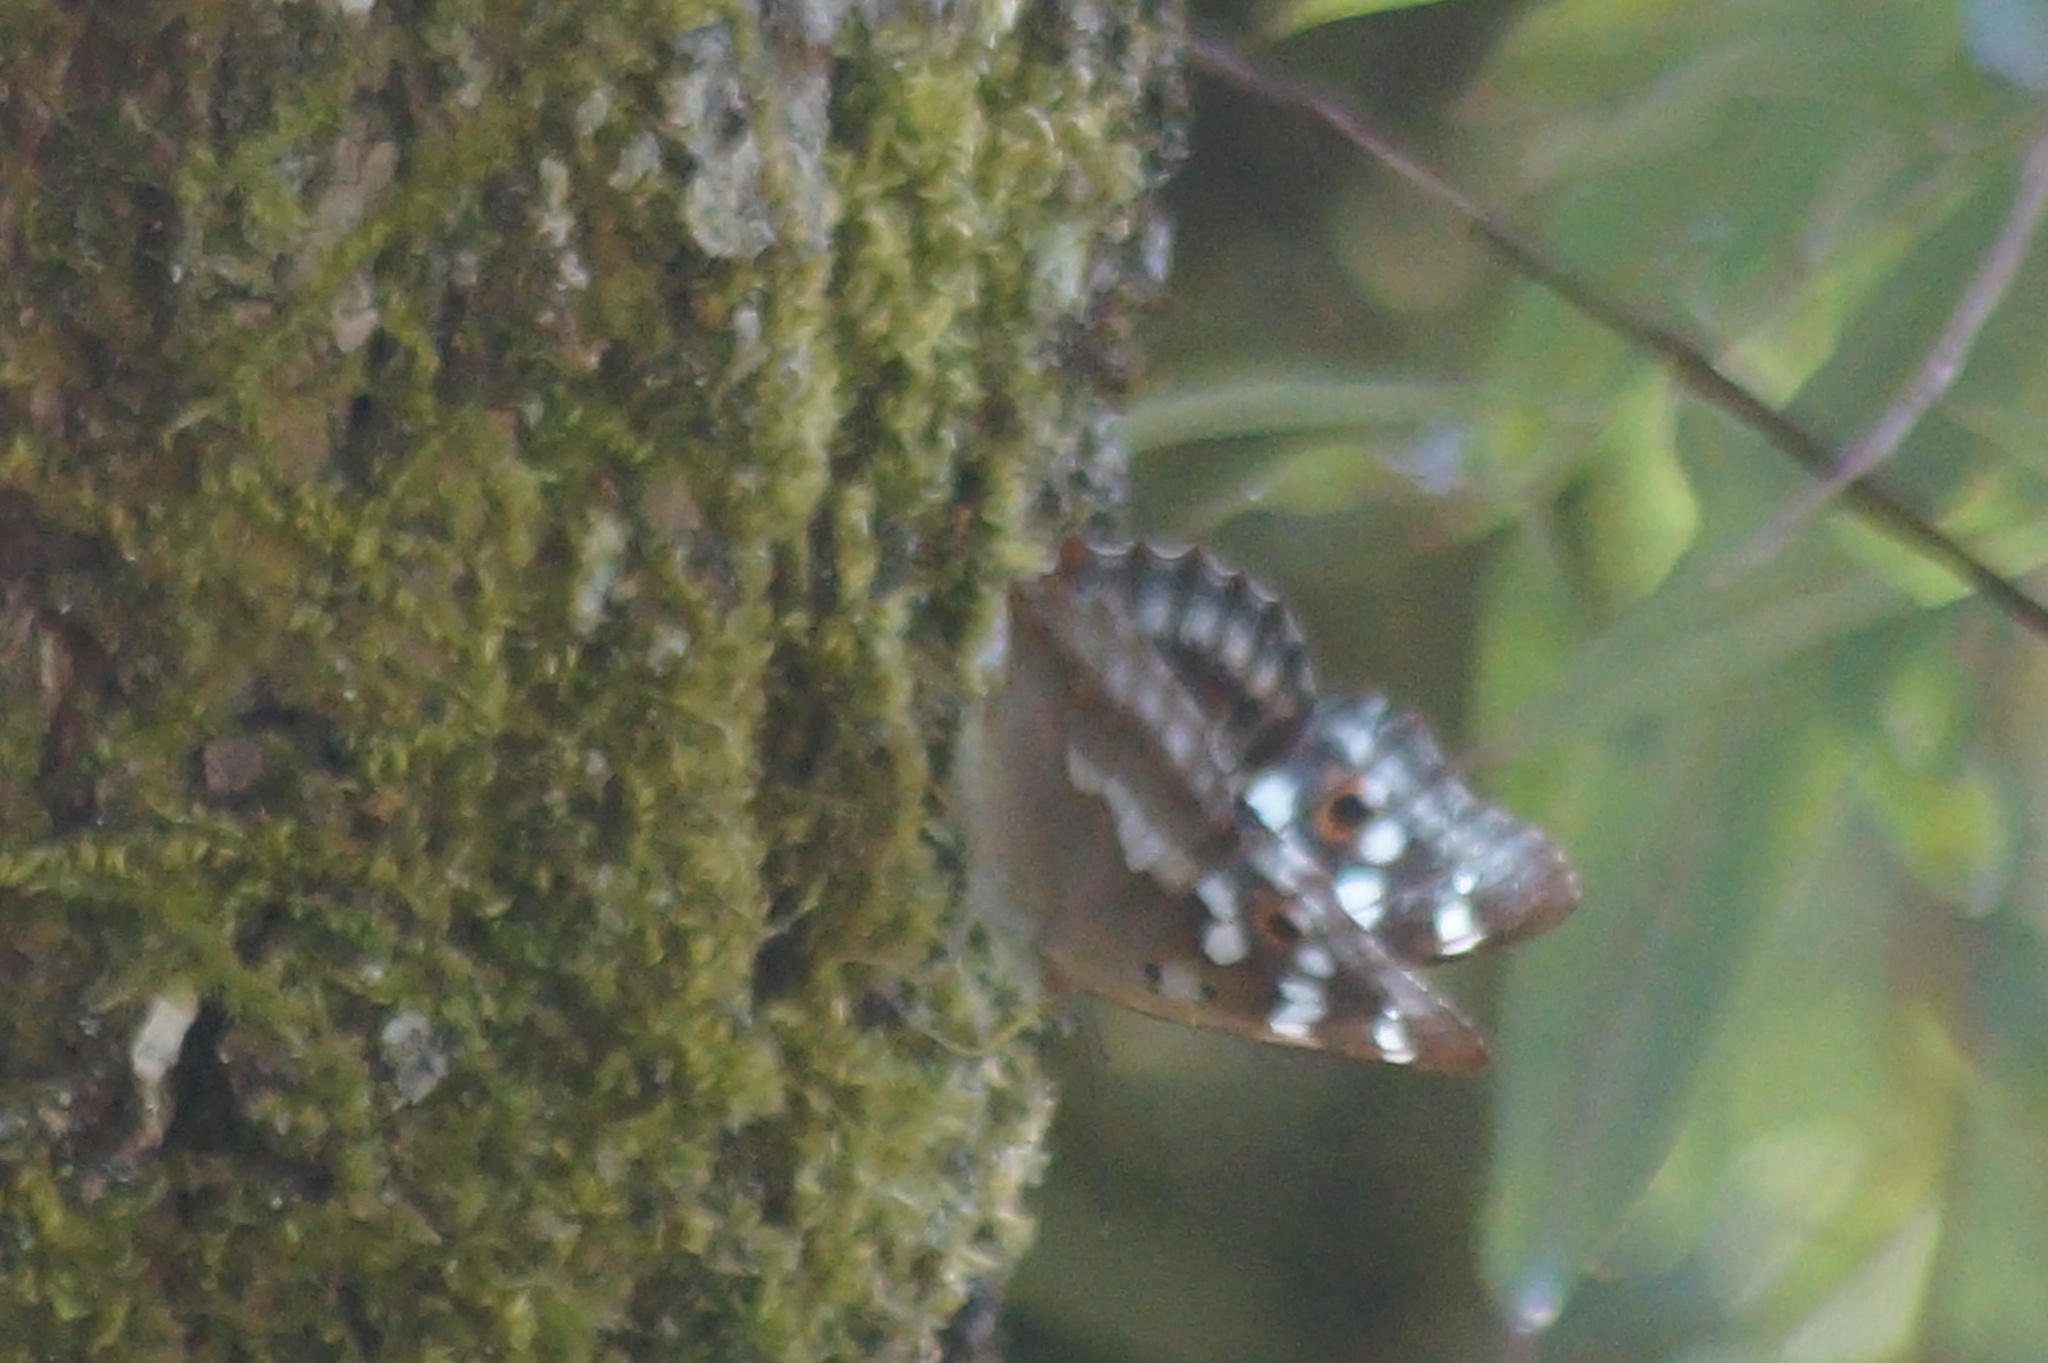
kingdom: Animalia
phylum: Arthropoda
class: Insecta
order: Lepidoptera
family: Nymphalidae
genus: Apatura
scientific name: Apatura ilia
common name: Lesser purple emperor
